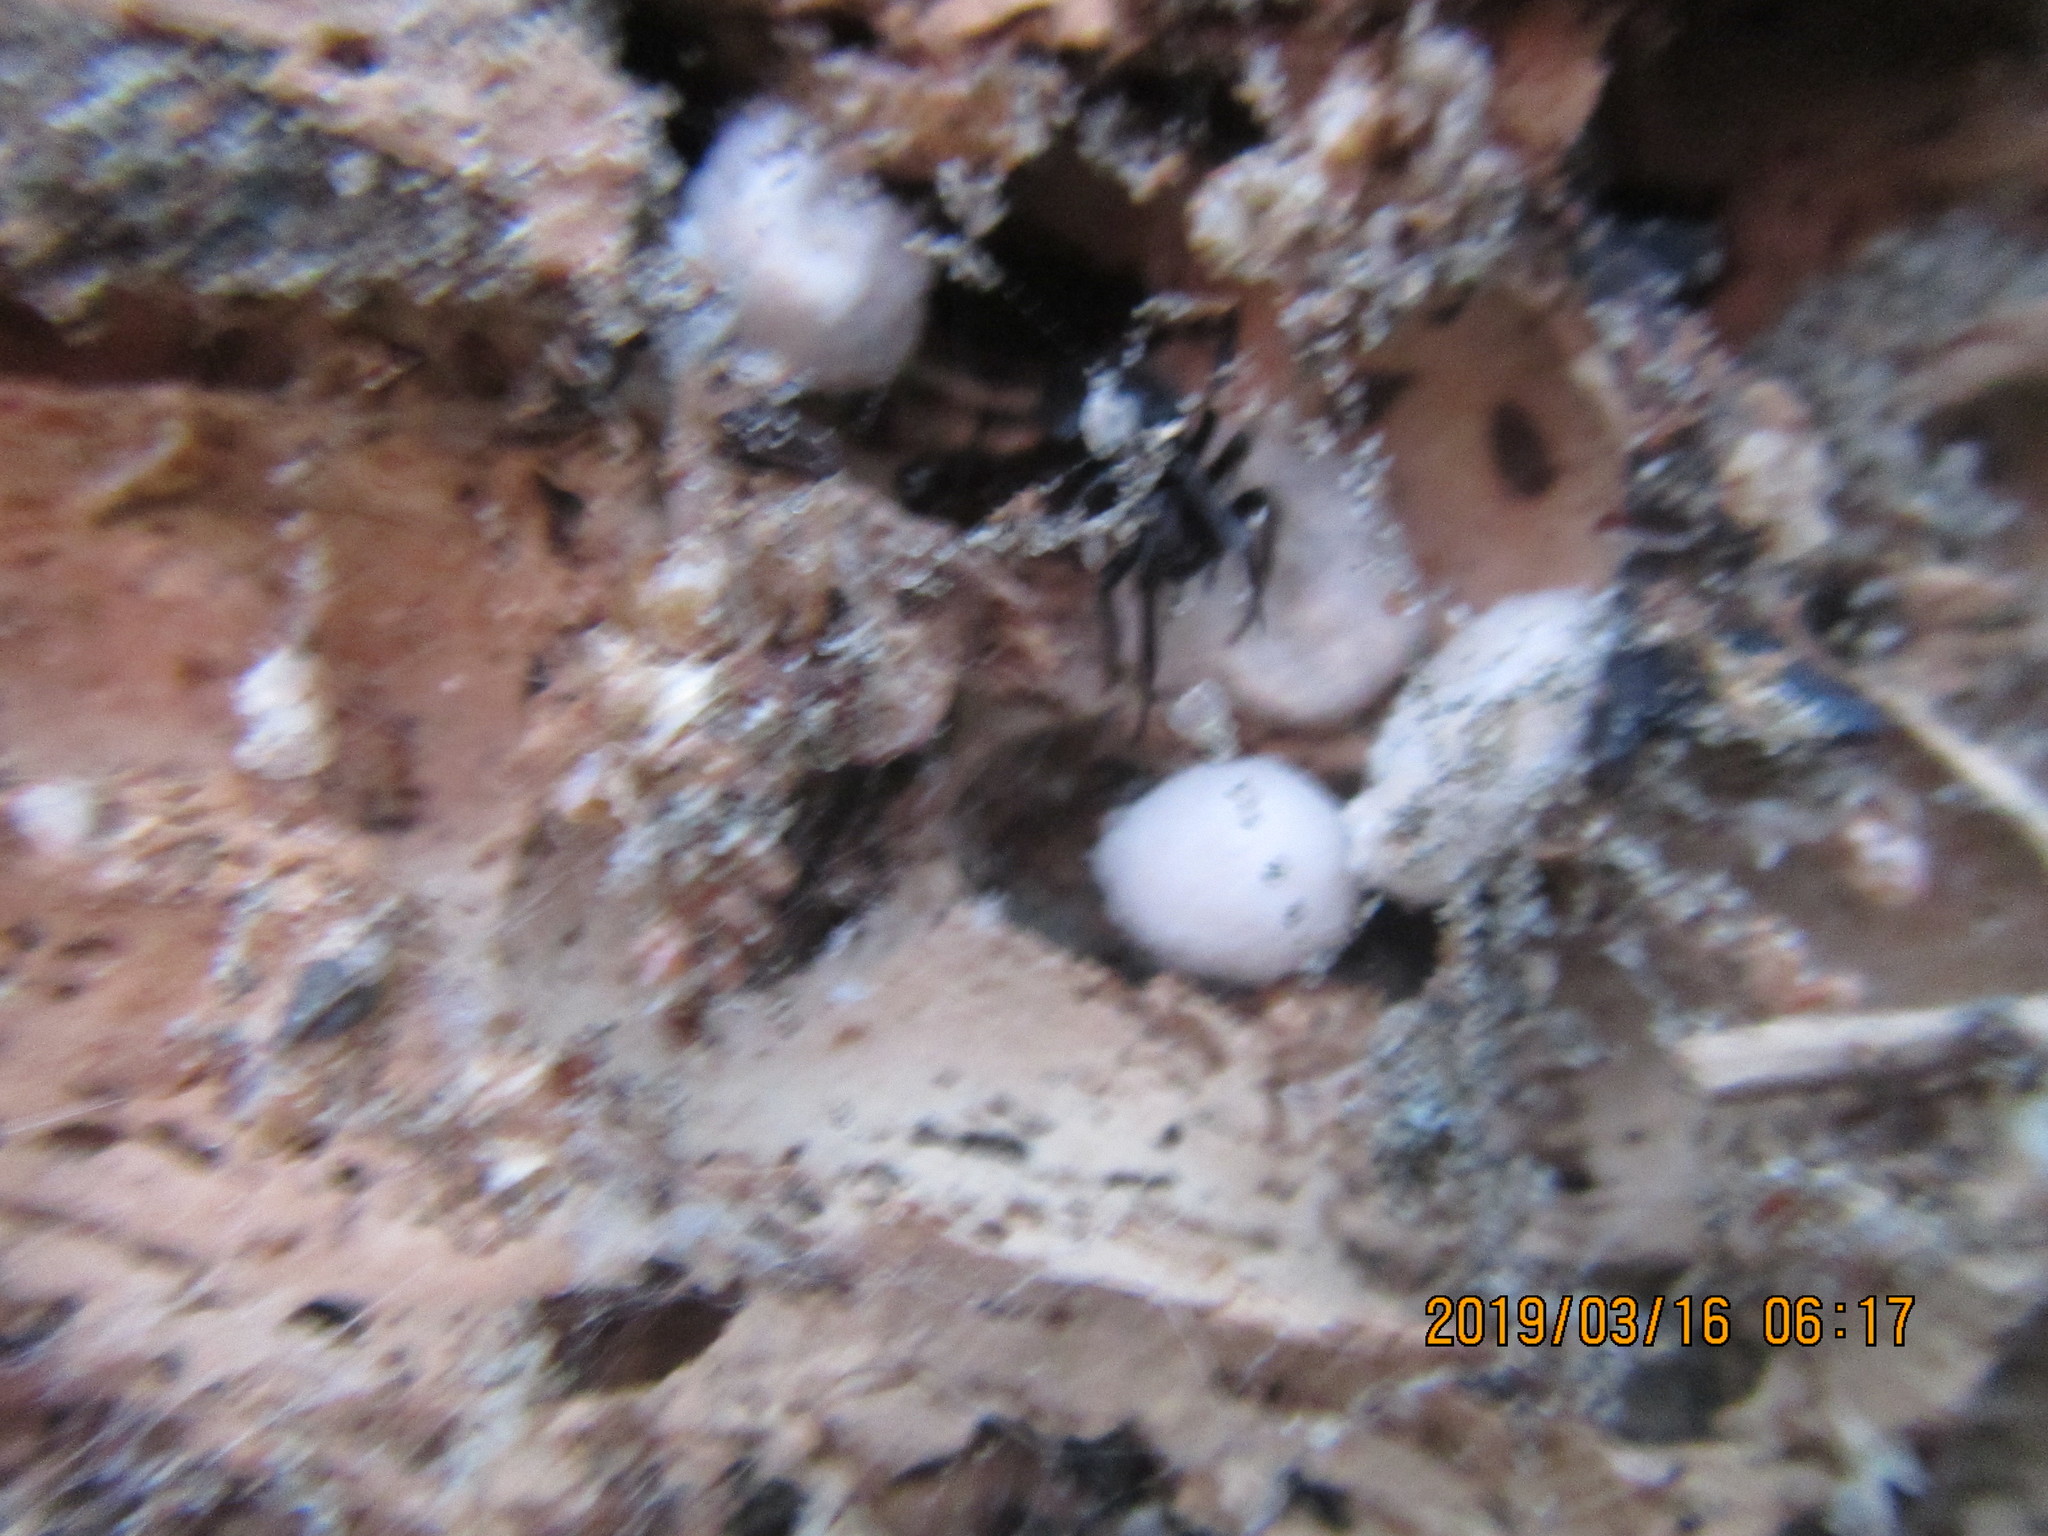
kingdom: Animalia
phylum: Arthropoda
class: Arachnida
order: Araneae
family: Theridiidae
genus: Steatoda
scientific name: Steatoda capensis
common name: Cobweb weaver
